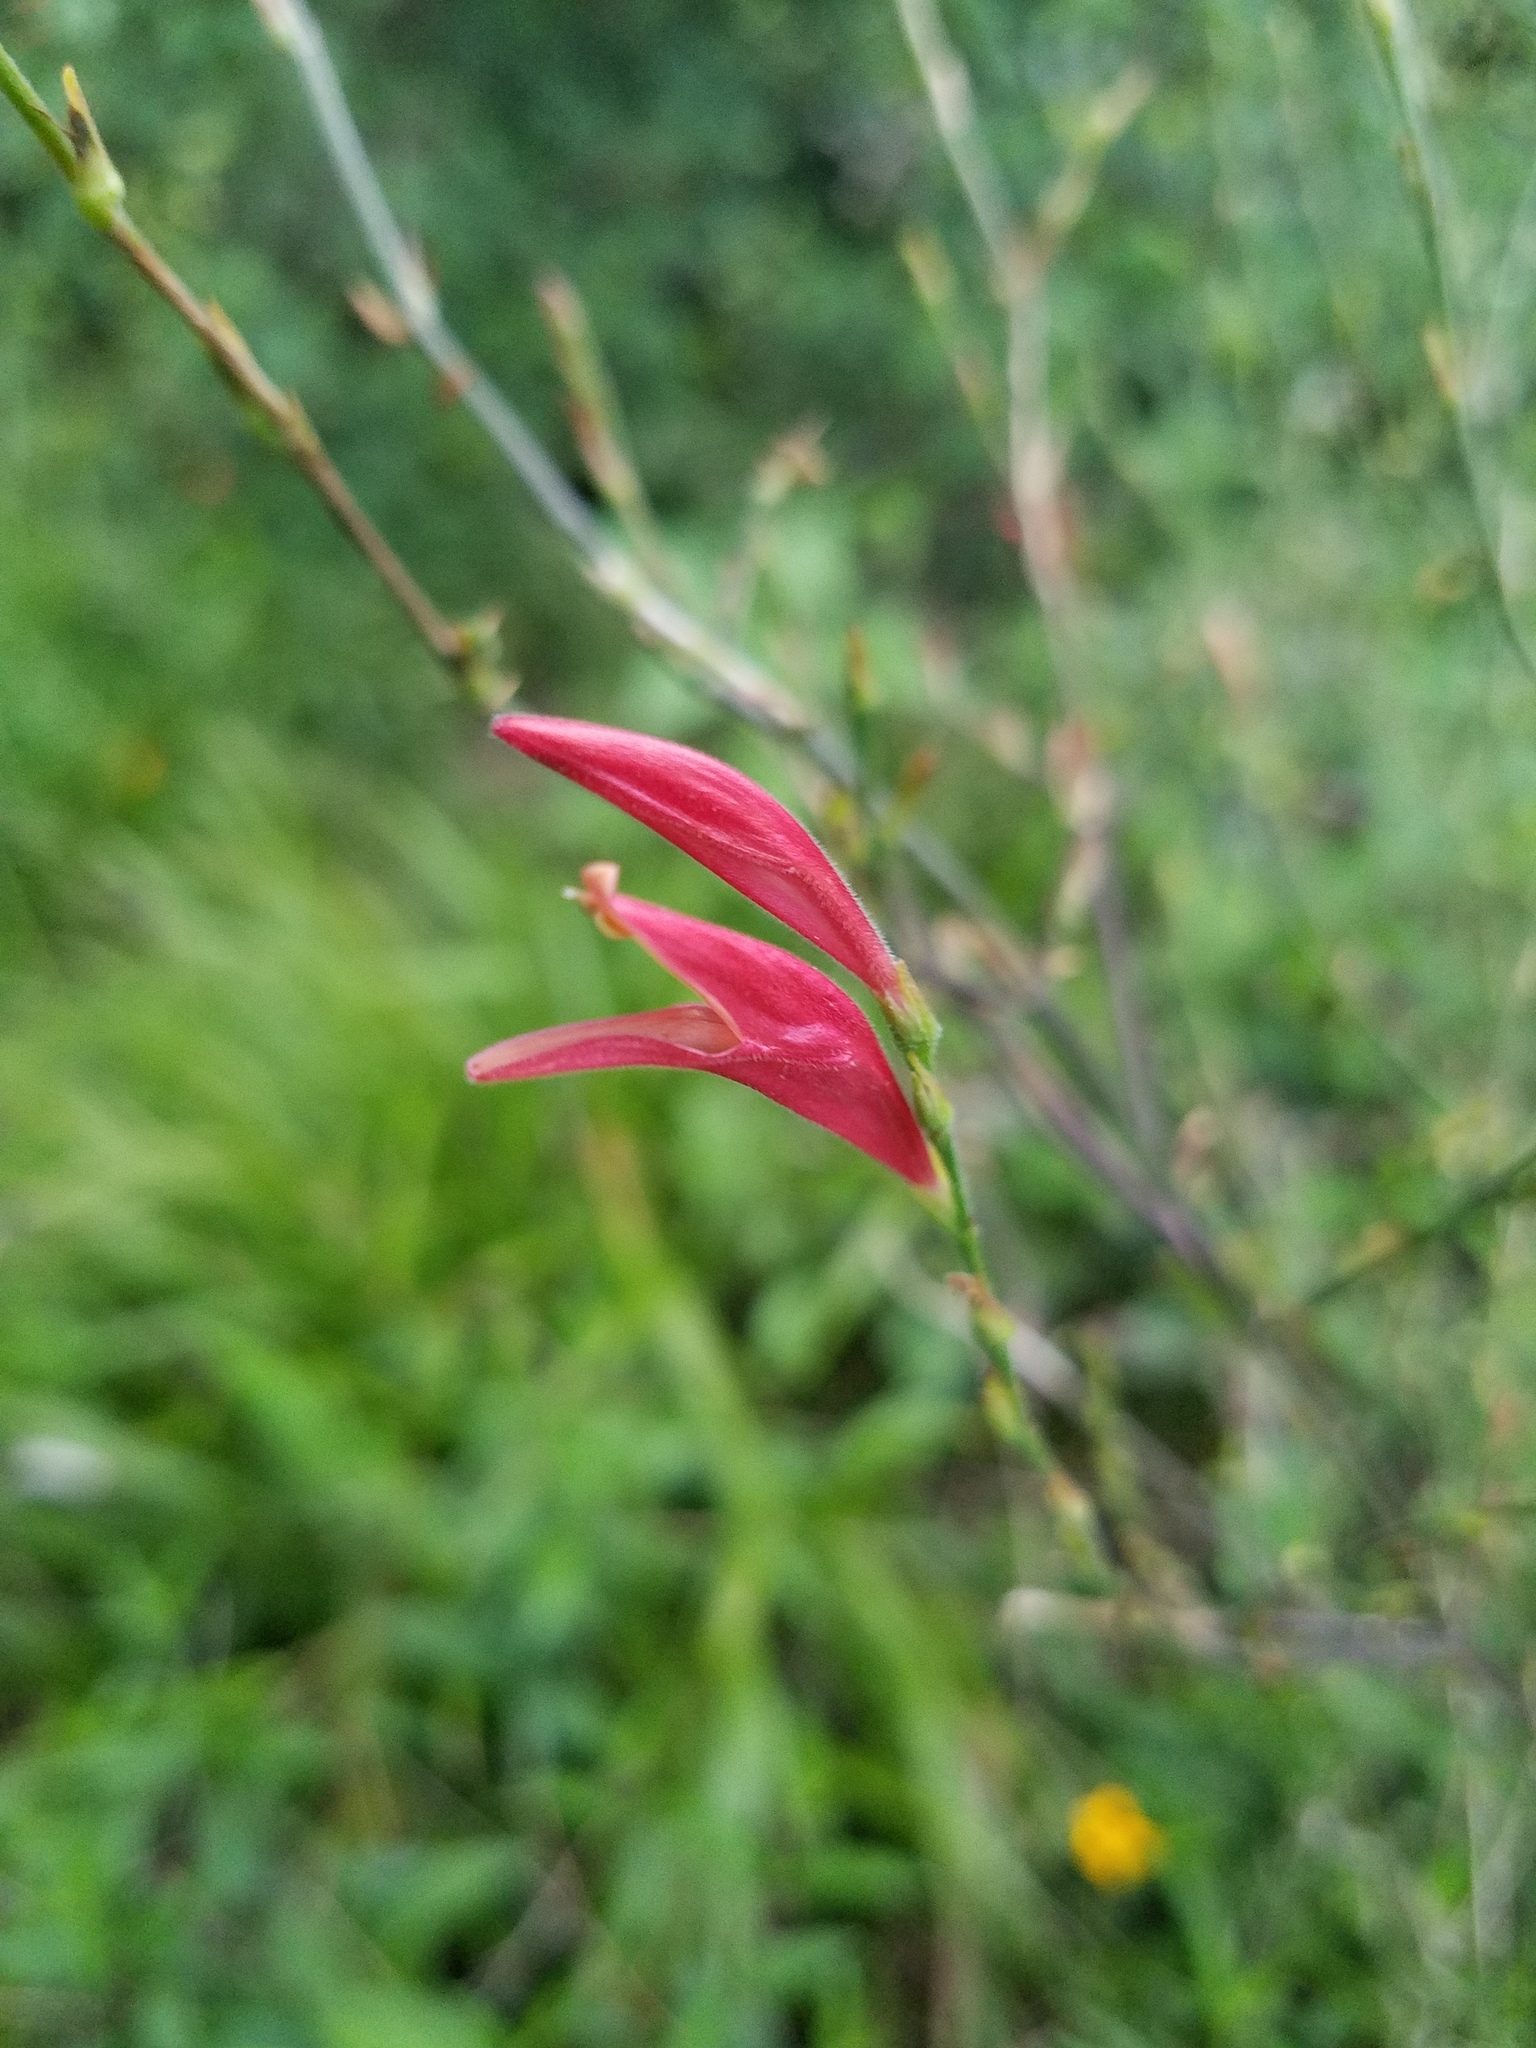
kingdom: Plantae
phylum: Tracheophyta
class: Magnoliopsida
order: Lamiales
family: Acanthaceae
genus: Dicliptera
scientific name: Dicliptera sexangularis
